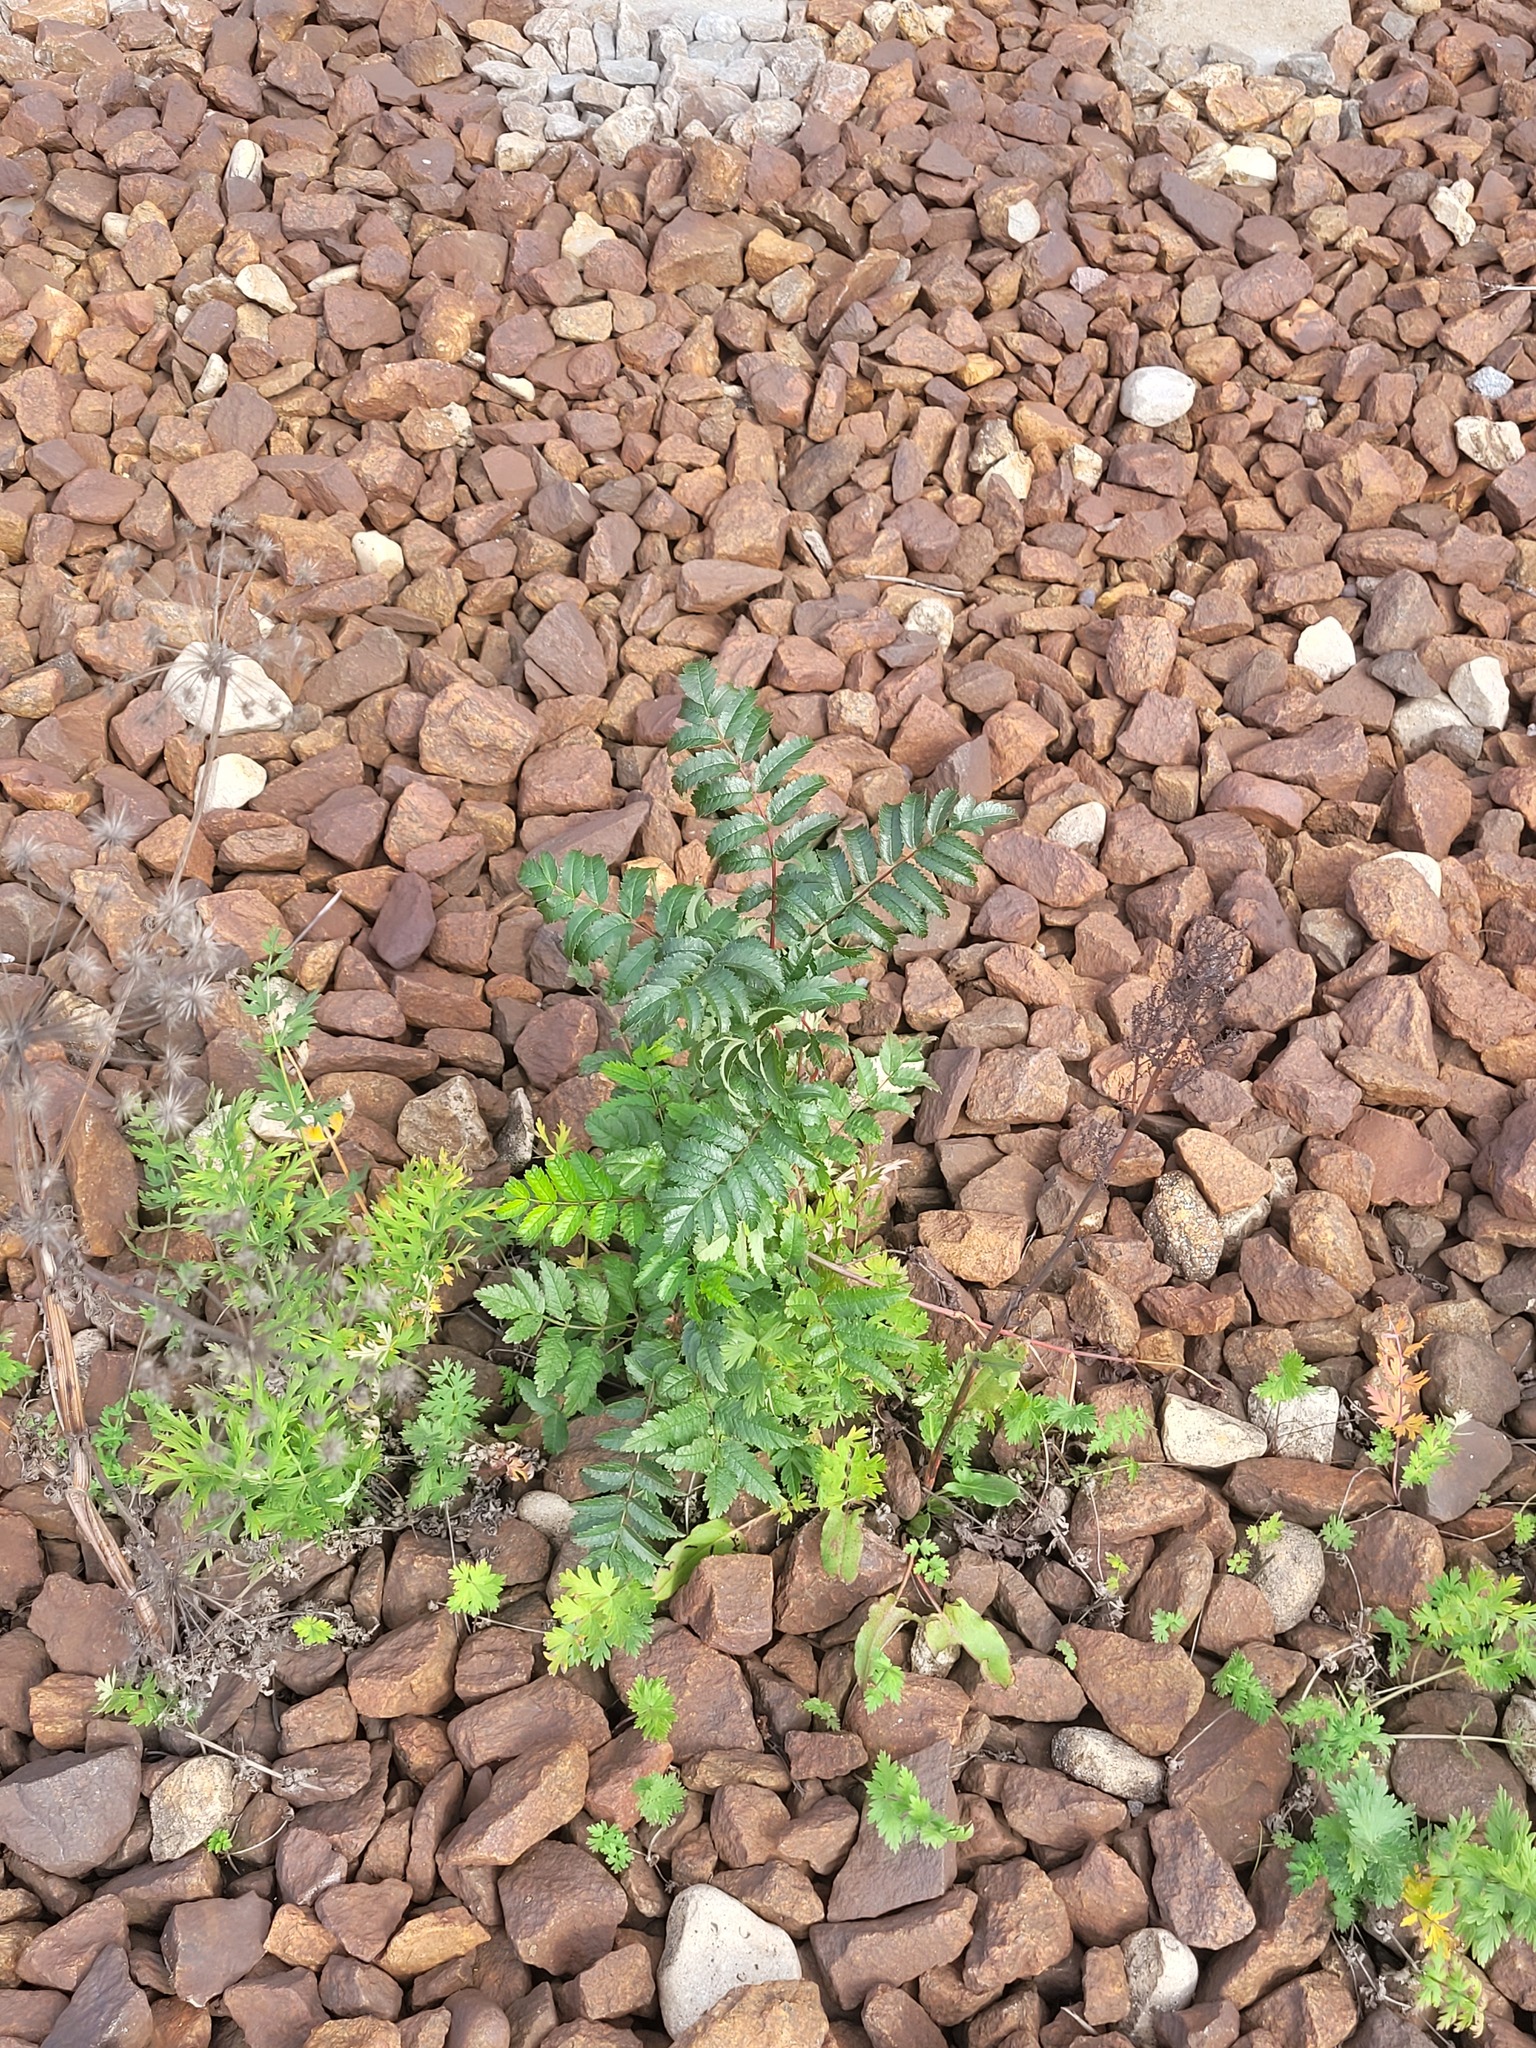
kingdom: Plantae
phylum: Tracheophyta
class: Magnoliopsida
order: Rosales
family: Rosaceae
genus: Sorbus
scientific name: Sorbus aucuparia
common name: Rowan
